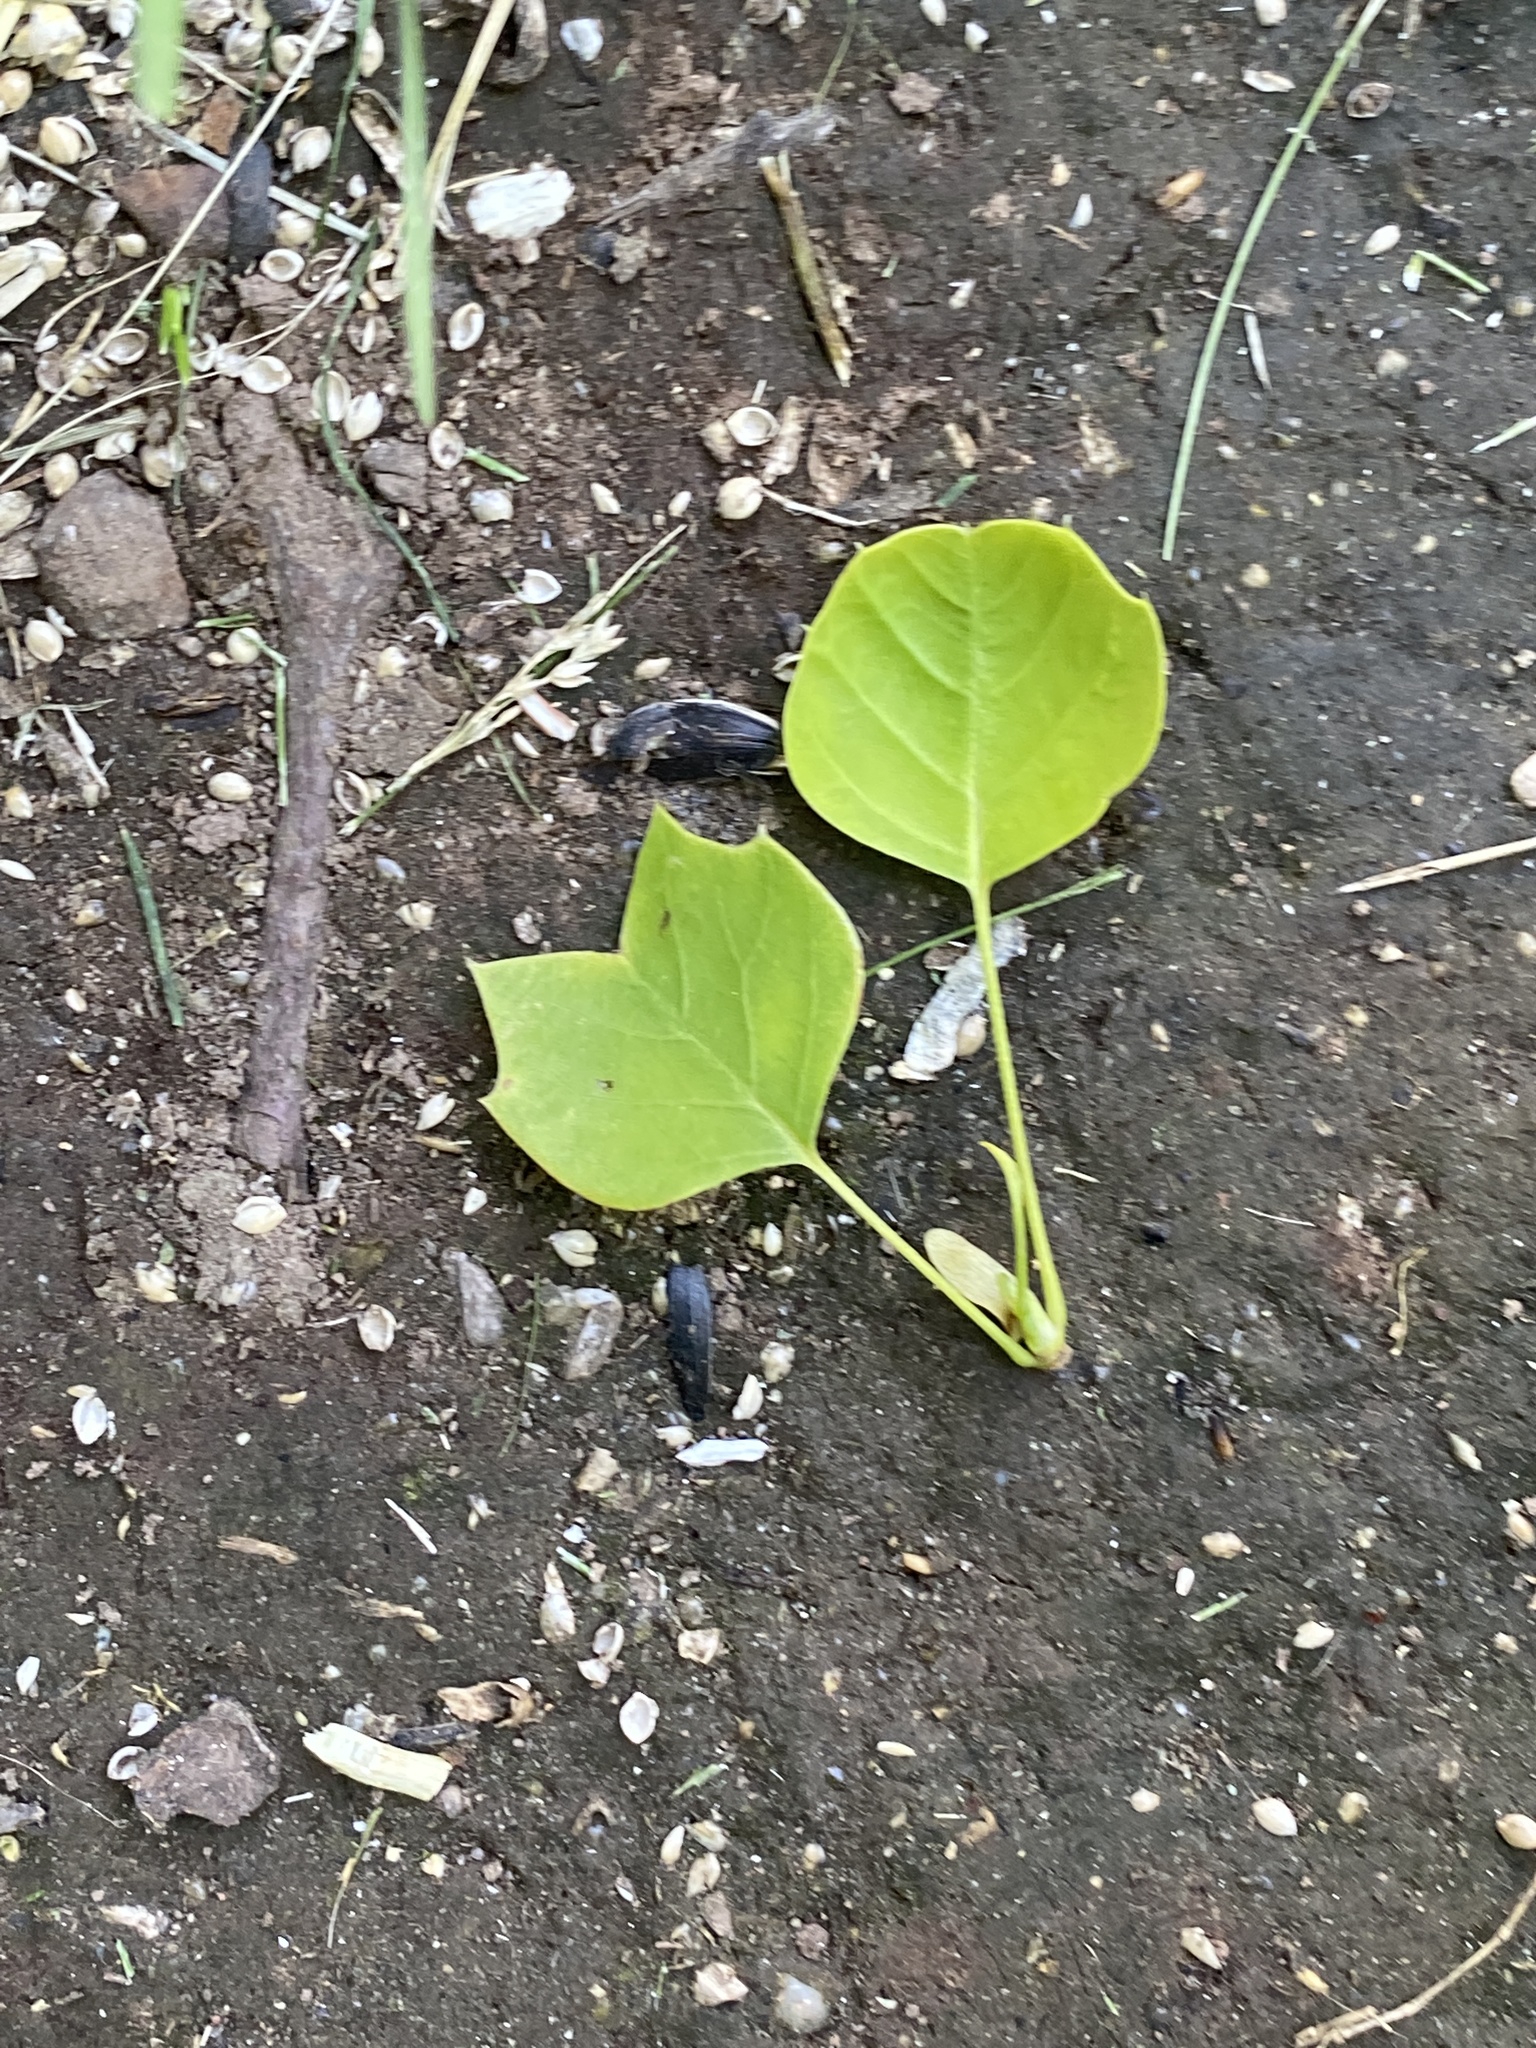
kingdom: Plantae
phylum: Tracheophyta
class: Magnoliopsida
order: Magnoliales
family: Magnoliaceae
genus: Liriodendron
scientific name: Liriodendron tulipifera
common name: Tulip tree
